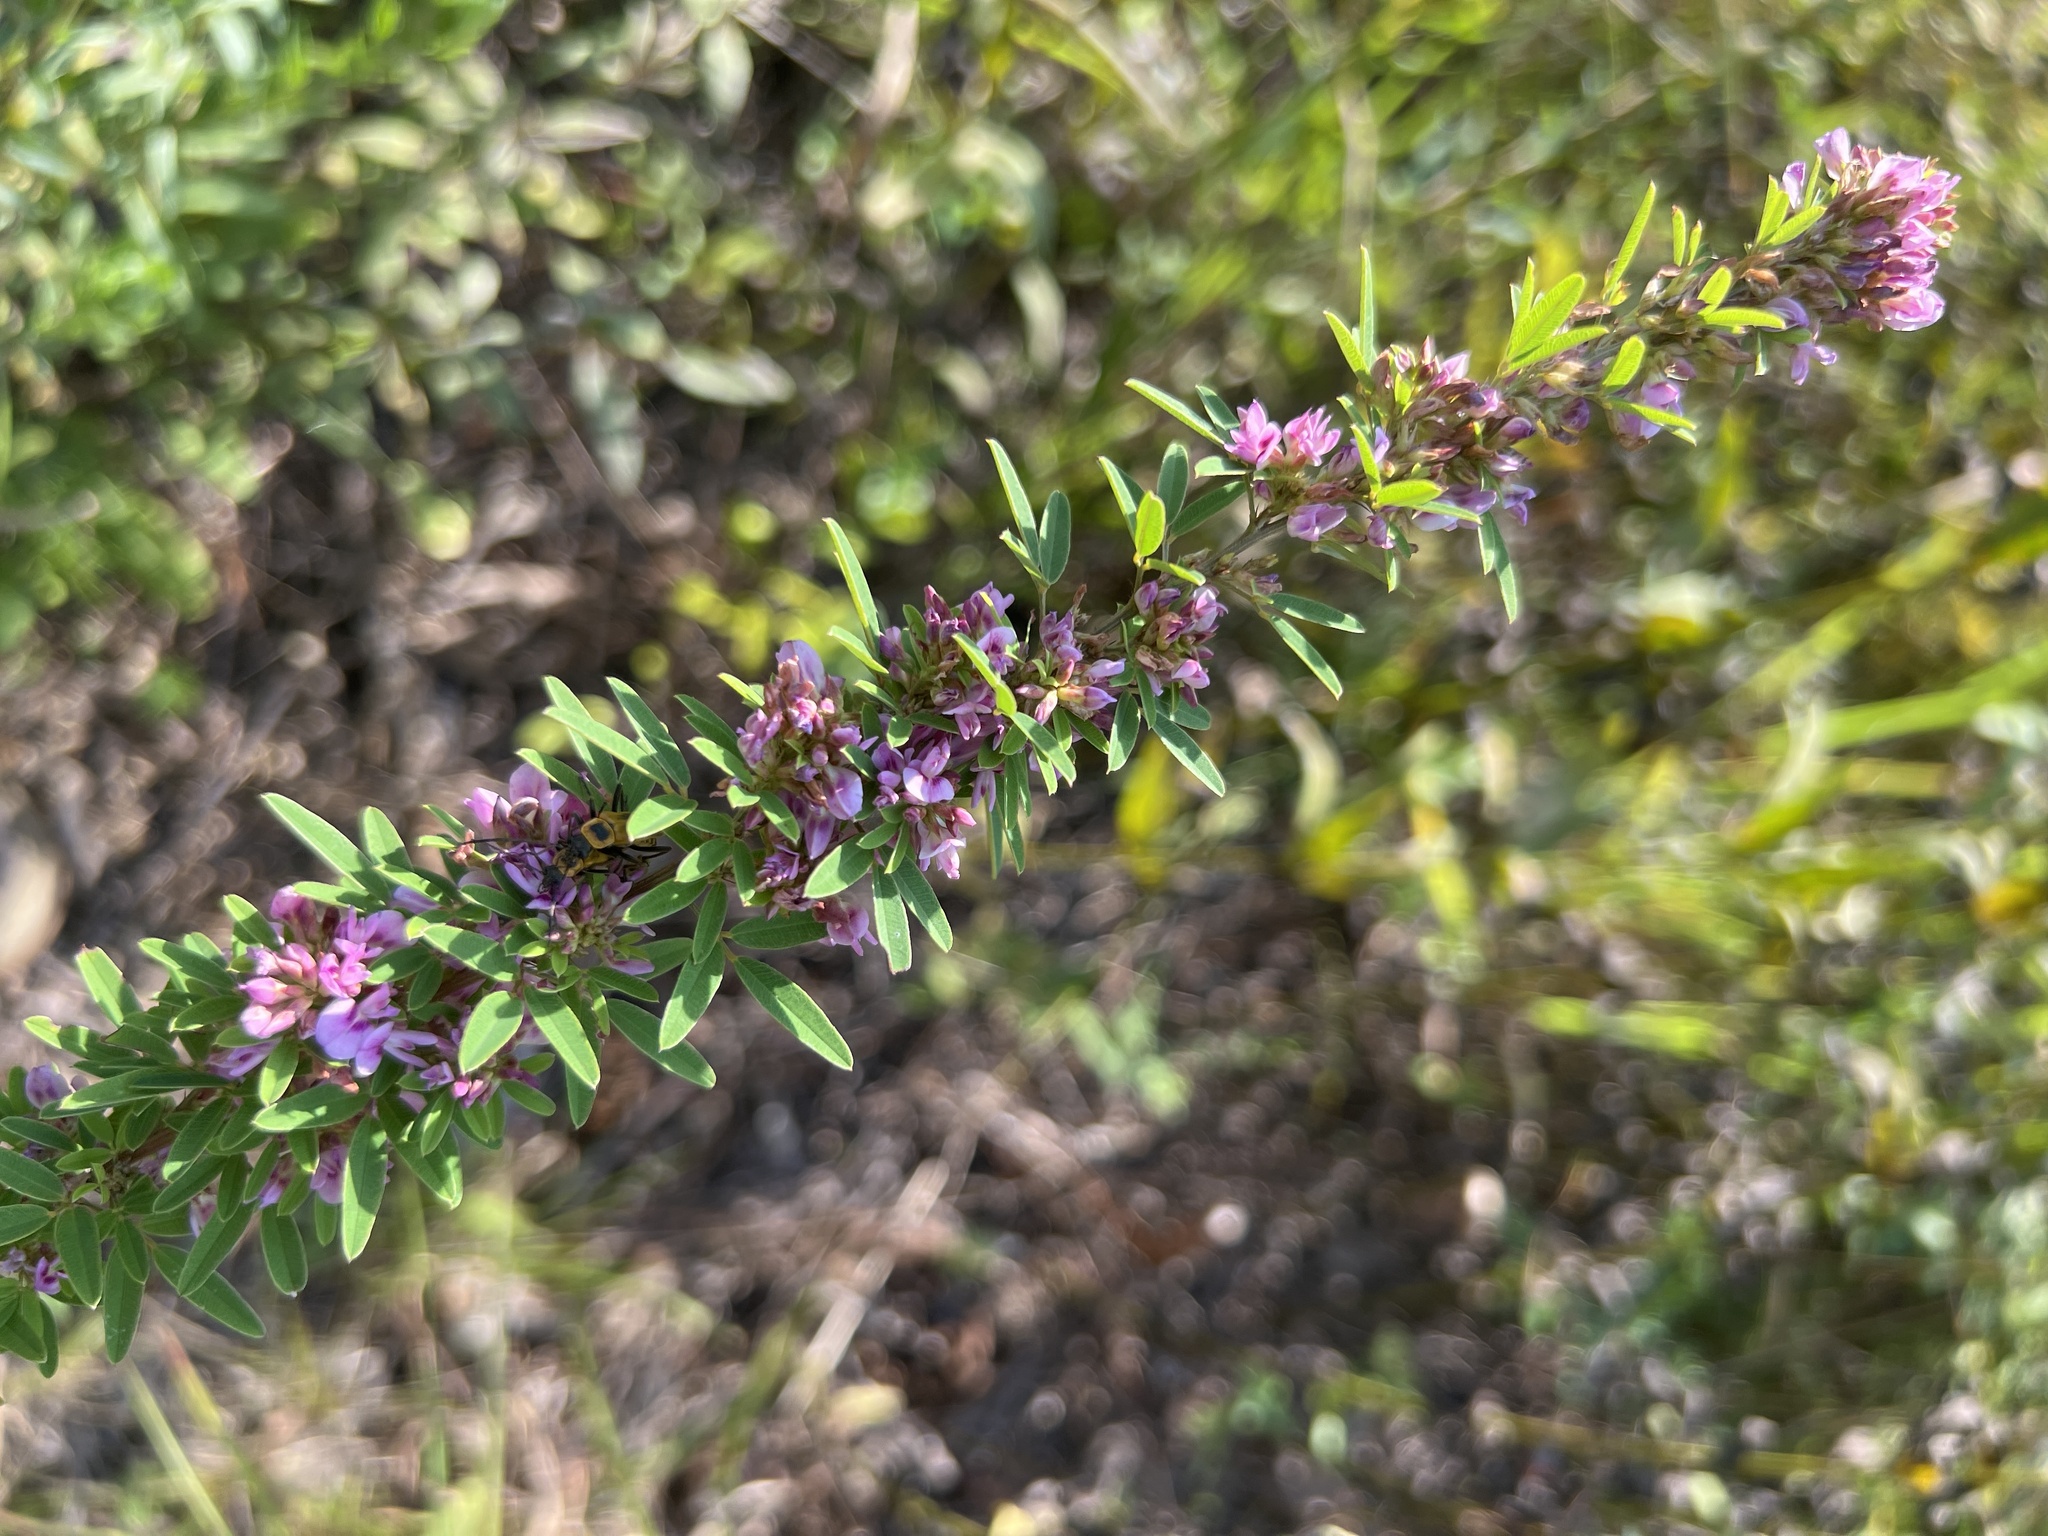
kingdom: Plantae
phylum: Tracheophyta
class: Magnoliopsida
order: Fabales
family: Fabaceae
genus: Lespedeza
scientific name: Lespedeza virginica
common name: Slender bush-clover
